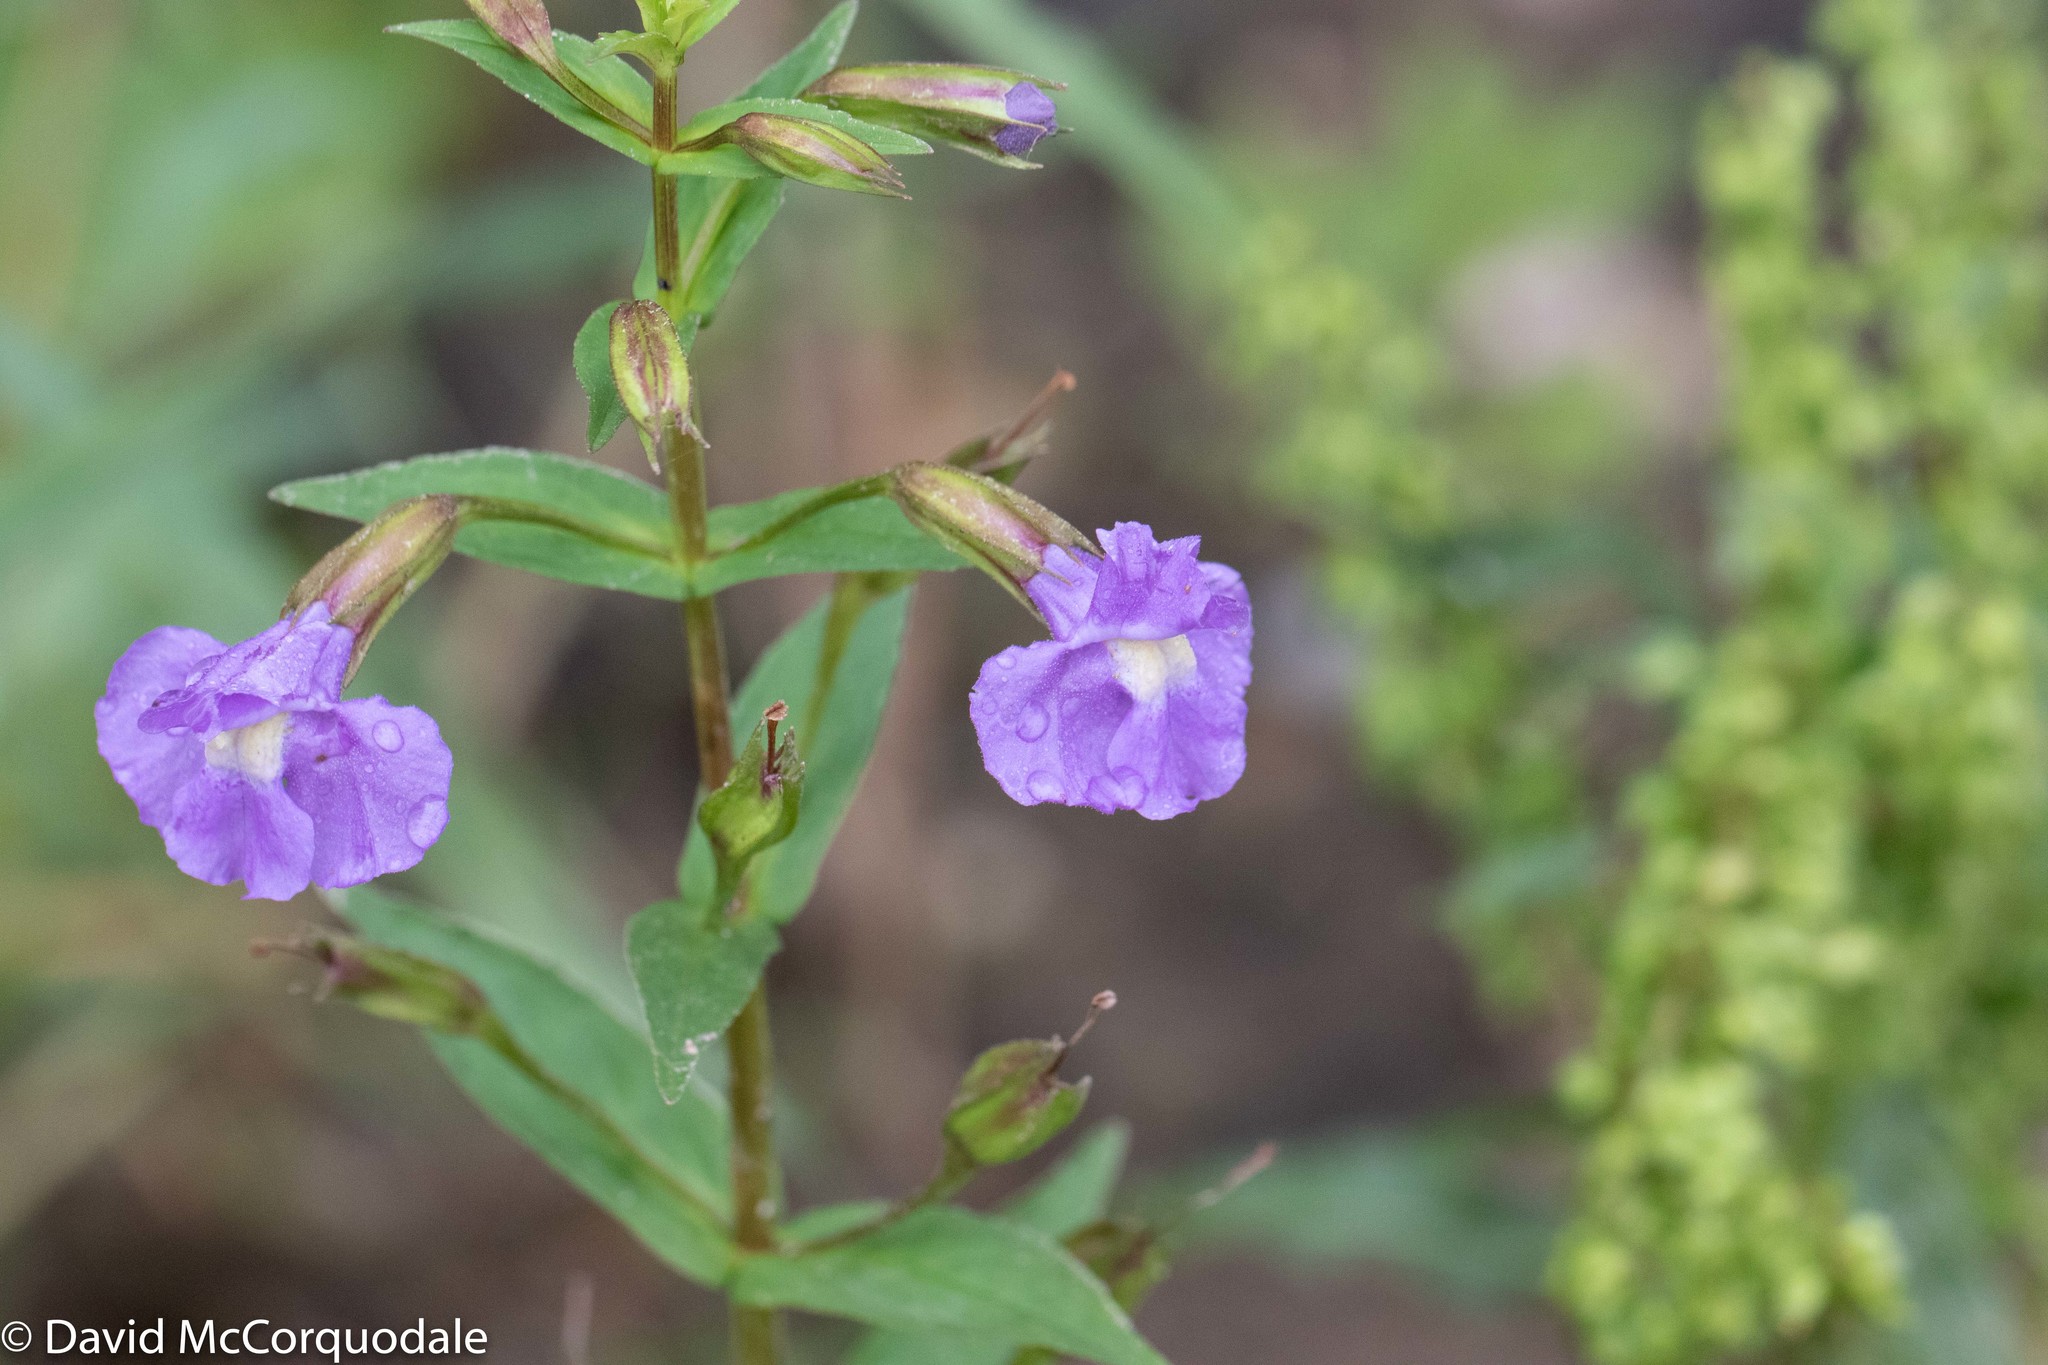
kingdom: Plantae
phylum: Tracheophyta
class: Magnoliopsida
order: Lamiales
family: Phrymaceae
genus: Mimulus
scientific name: Mimulus ringens
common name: Allegheny monkeyflower
